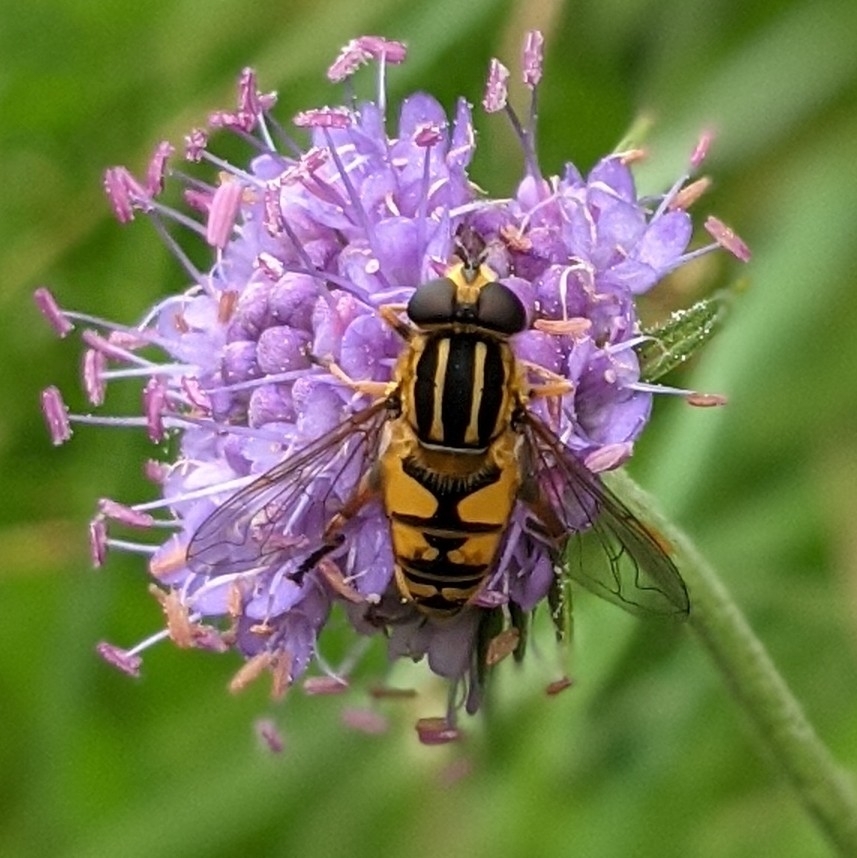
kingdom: Animalia
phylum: Arthropoda
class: Insecta
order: Diptera
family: Syrphidae
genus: Helophilus
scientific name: Helophilus pendulus
